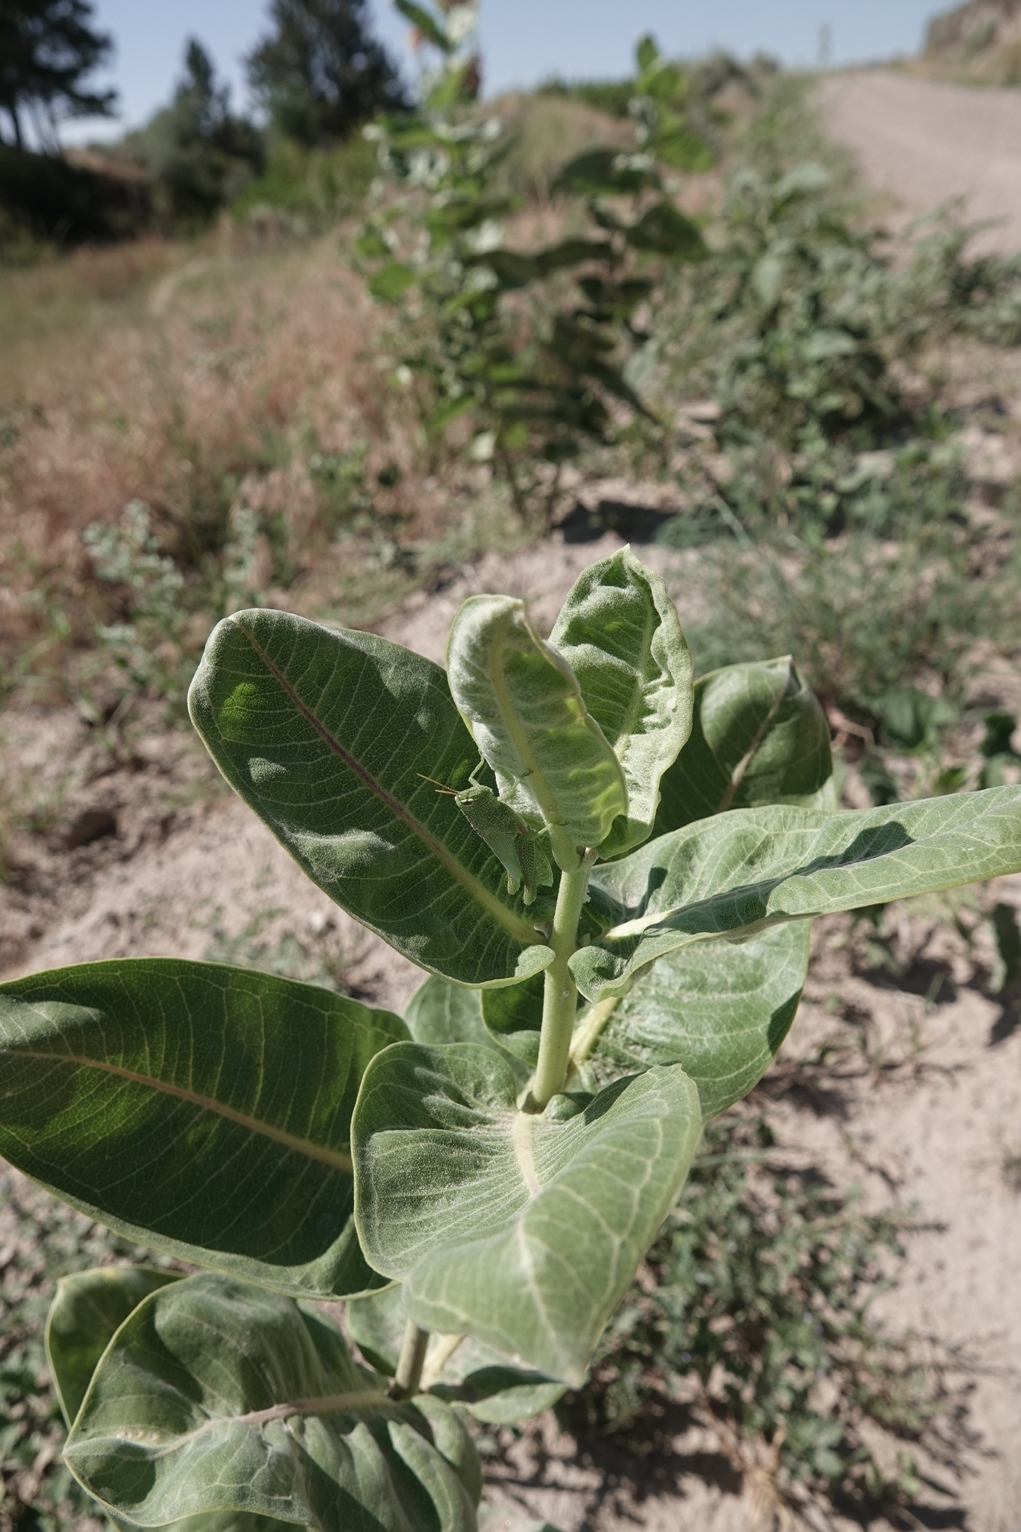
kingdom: Animalia
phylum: Arthropoda
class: Insecta
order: Orthoptera
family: Acrididae
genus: Hesperotettix
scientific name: Hesperotettix speciosus
